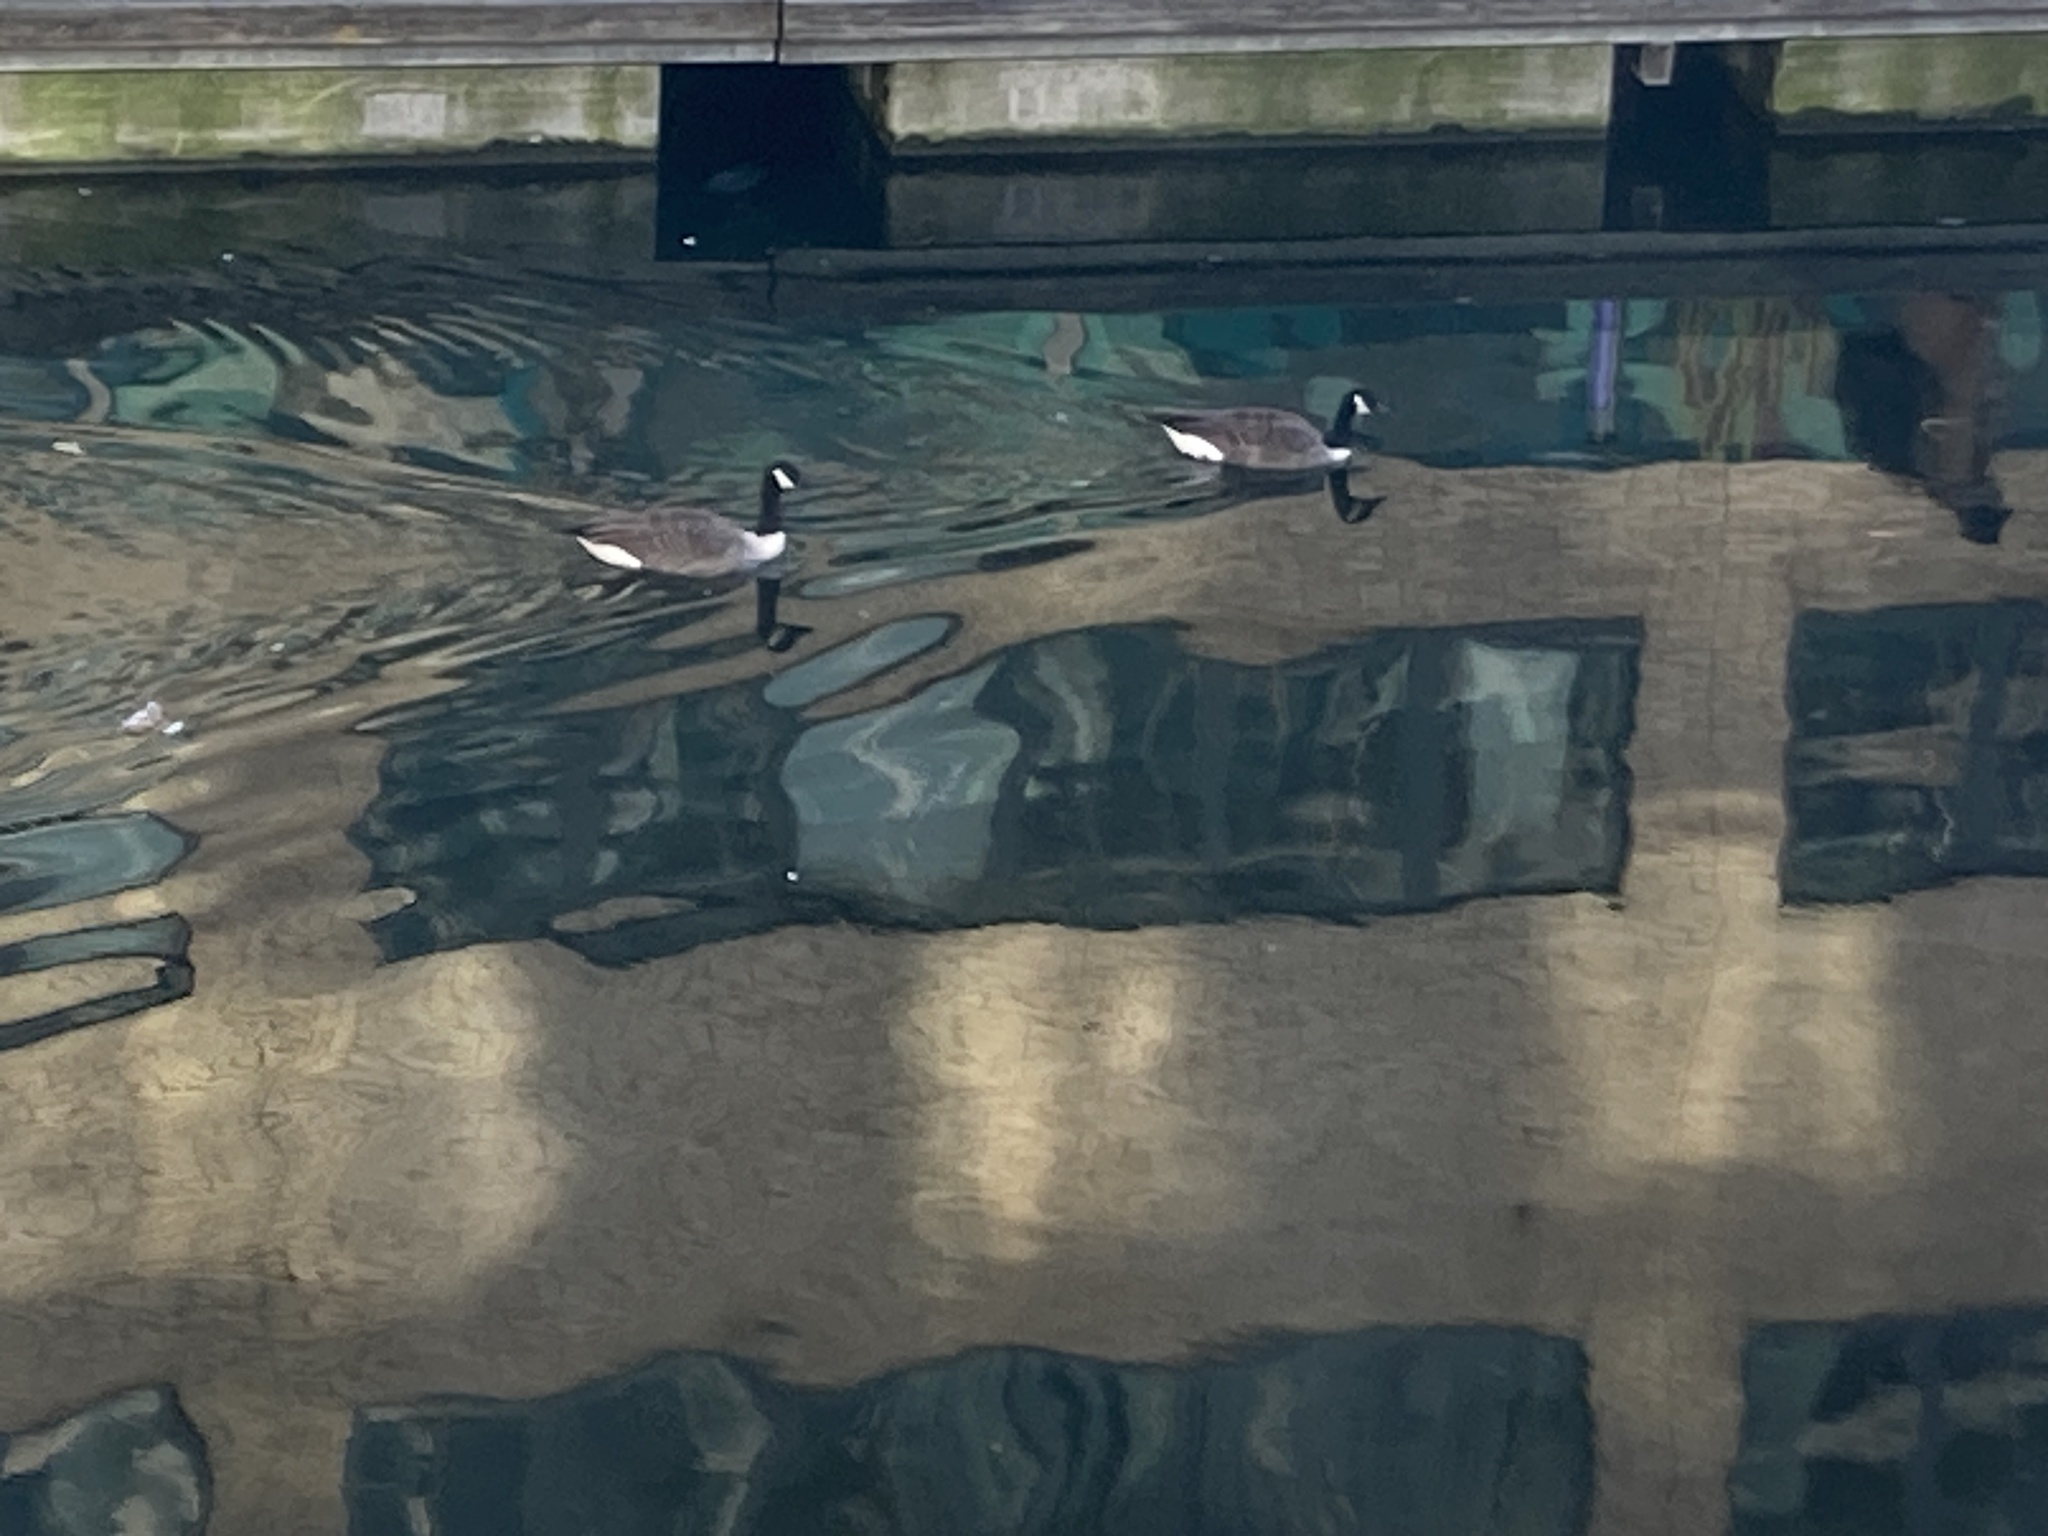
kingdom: Animalia
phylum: Chordata
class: Aves
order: Anseriformes
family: Anatidae
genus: Branta
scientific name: Branta canadensis
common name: Canada goose
